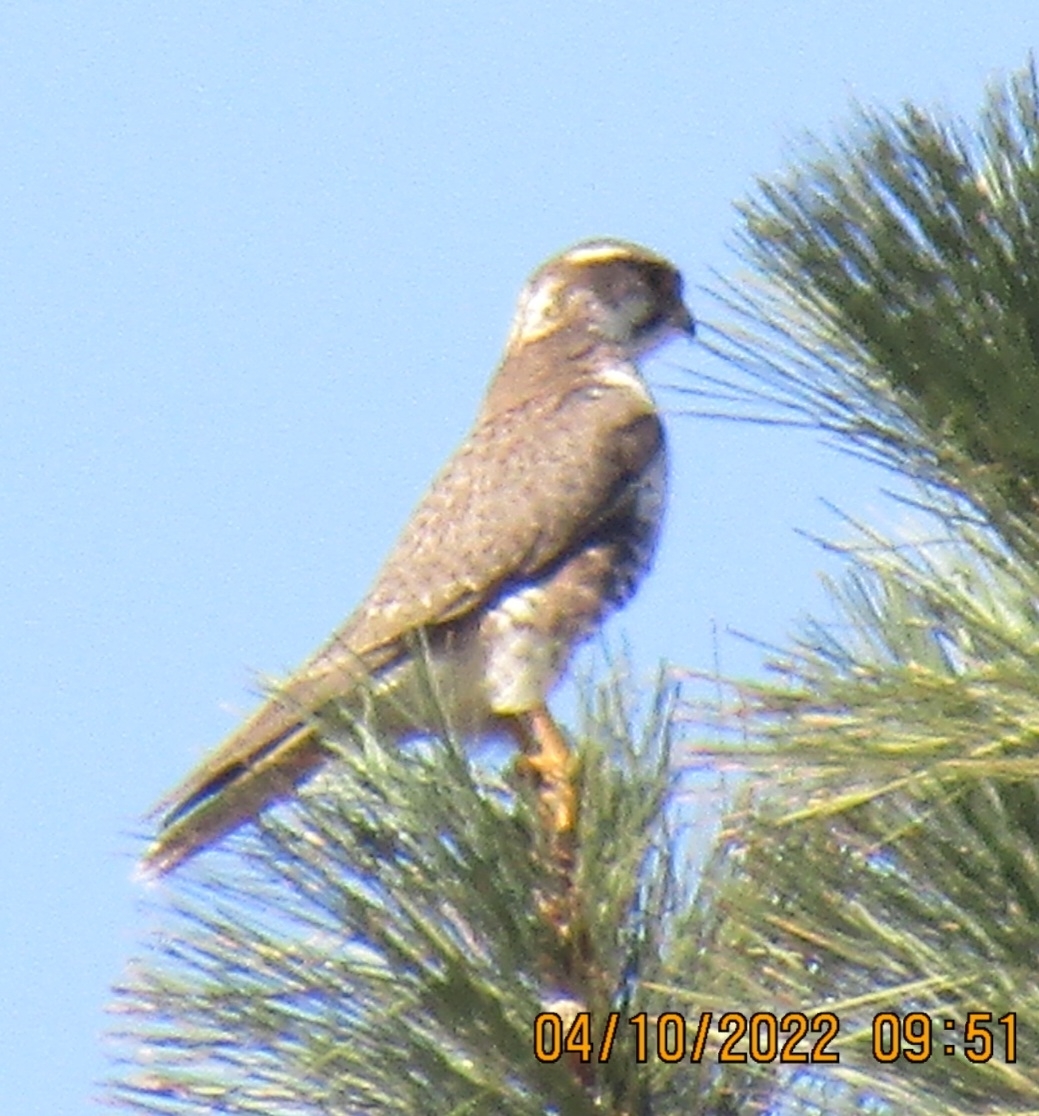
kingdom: Animalia
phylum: Chordata
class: Aves
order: Falconiformes
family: Falconidae
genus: Falco
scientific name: Falco mexicanus
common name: Prairie falcon
